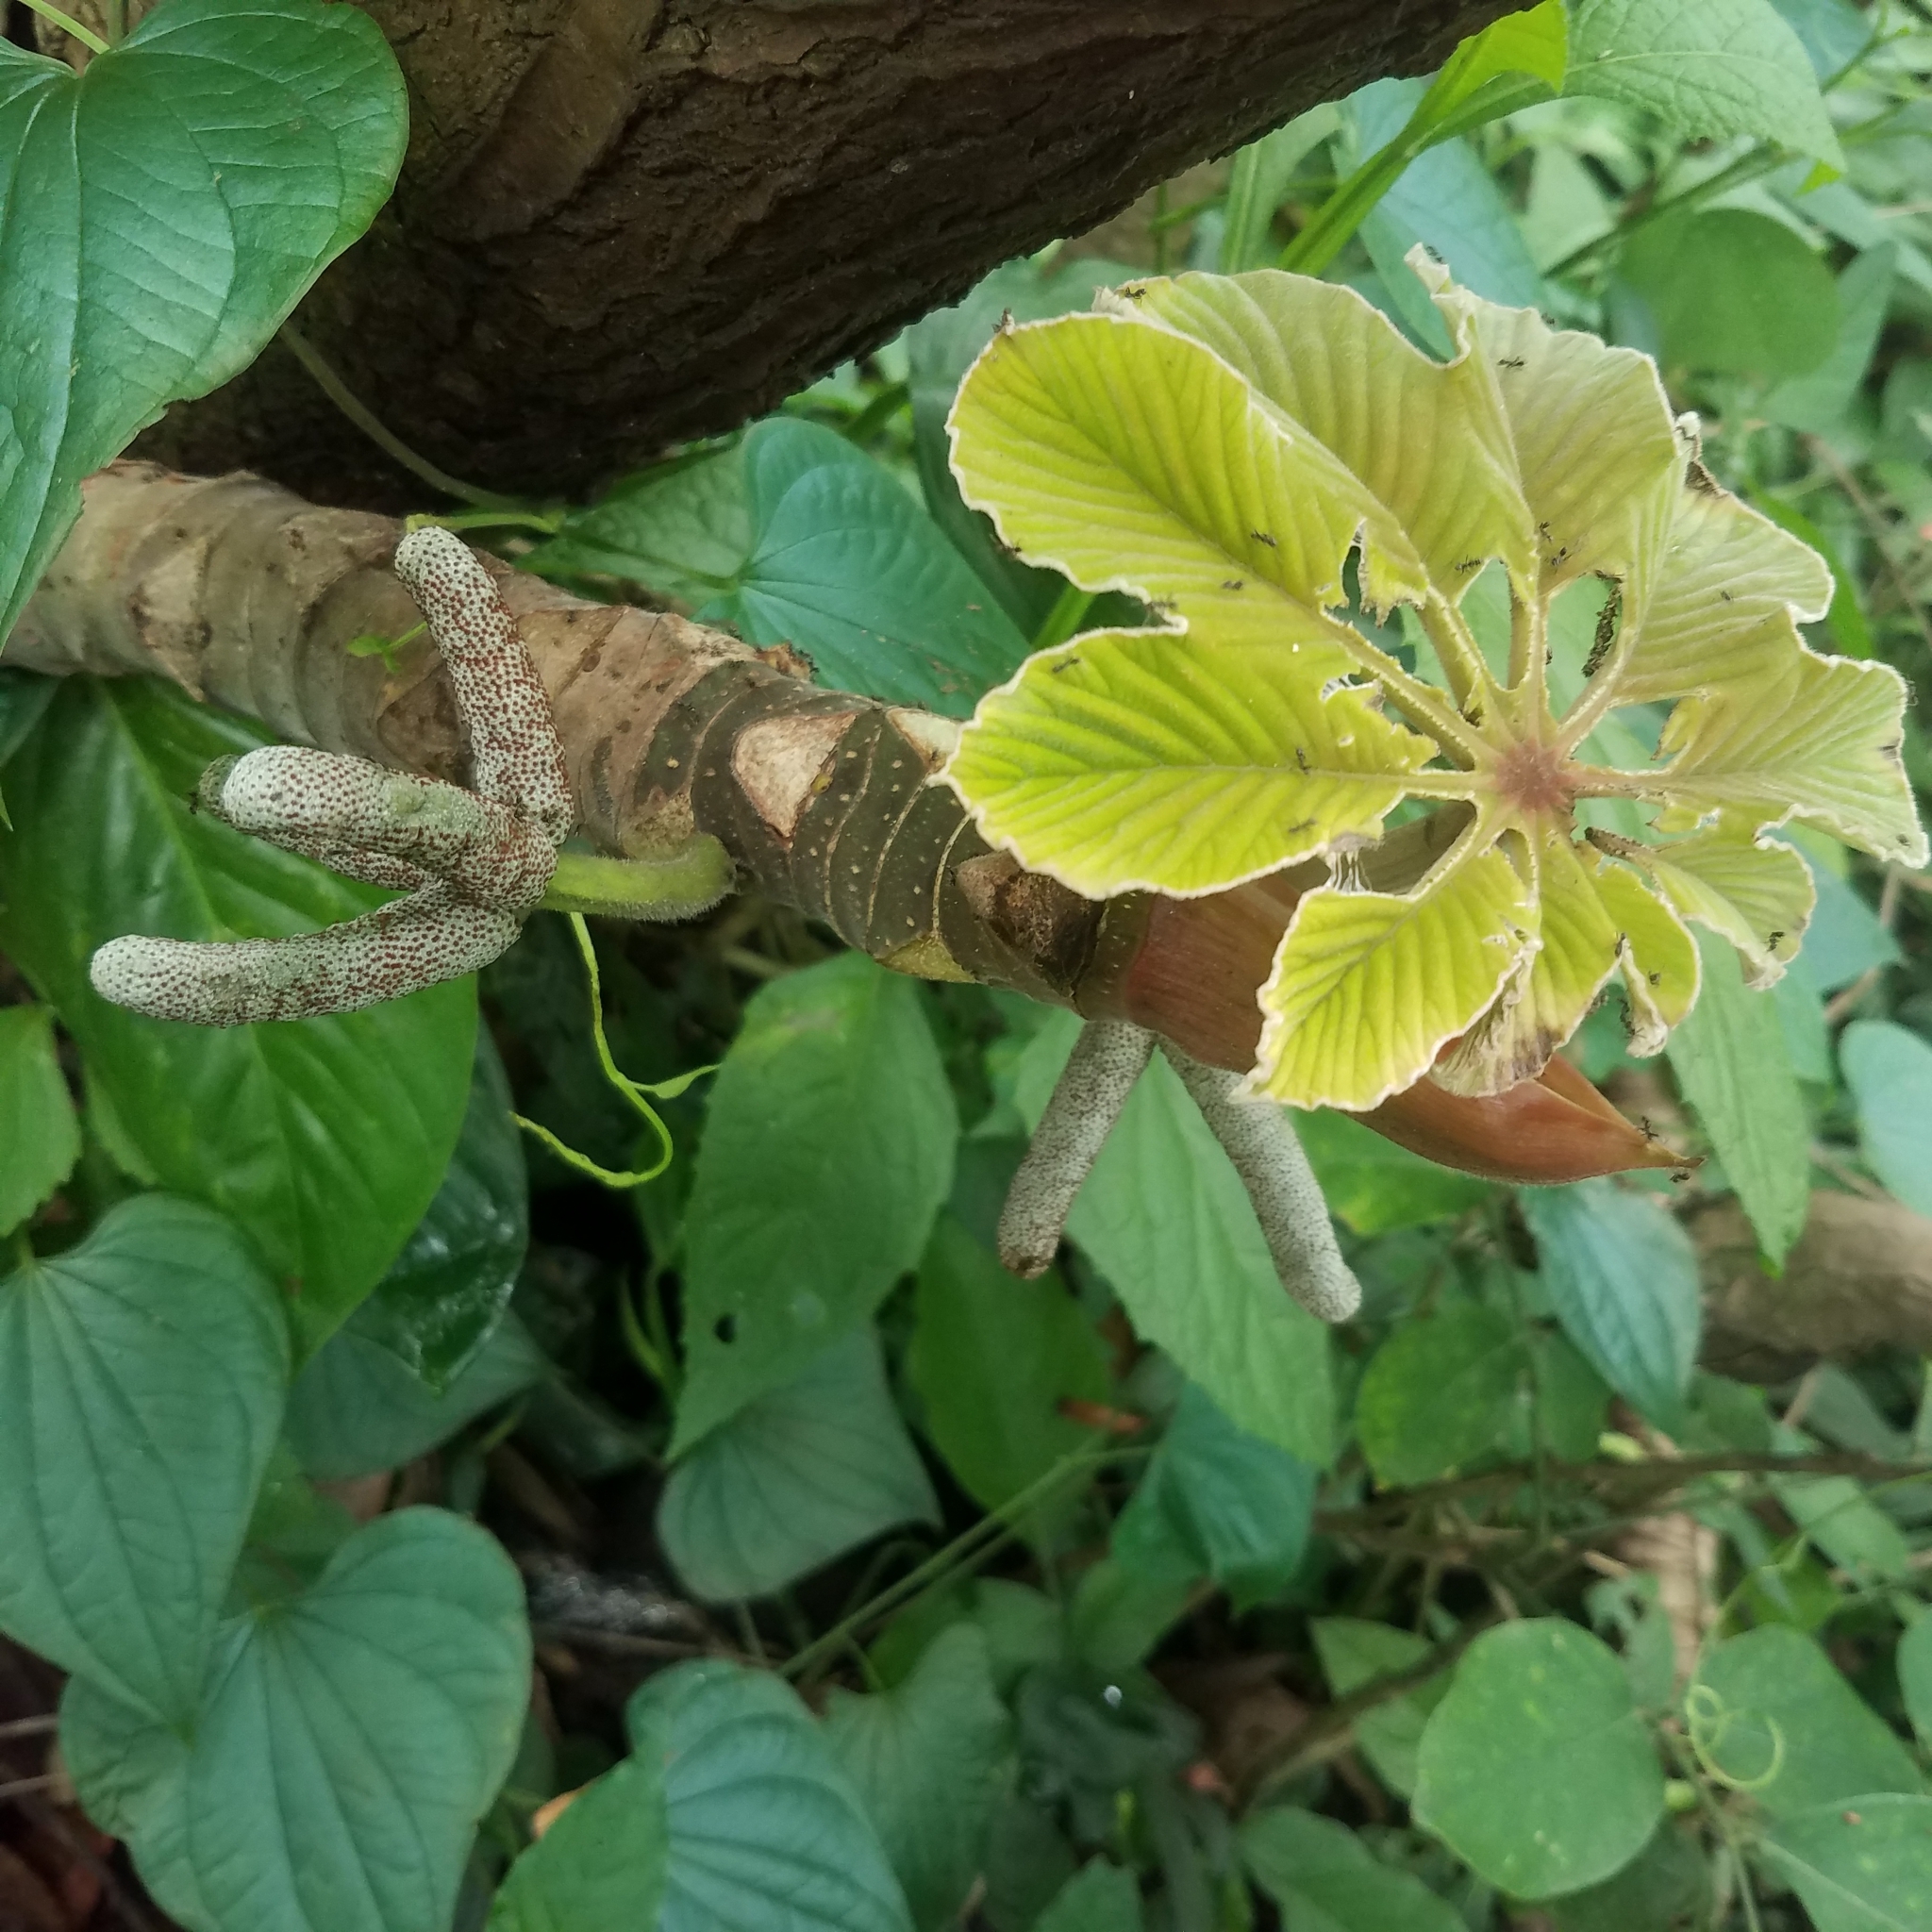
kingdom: Plantae
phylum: Tracheophyta
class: Magnoliopsida
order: Rosales
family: Urticaceae
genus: Cecropia
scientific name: Cecropia peltata
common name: Trumpet-tree
